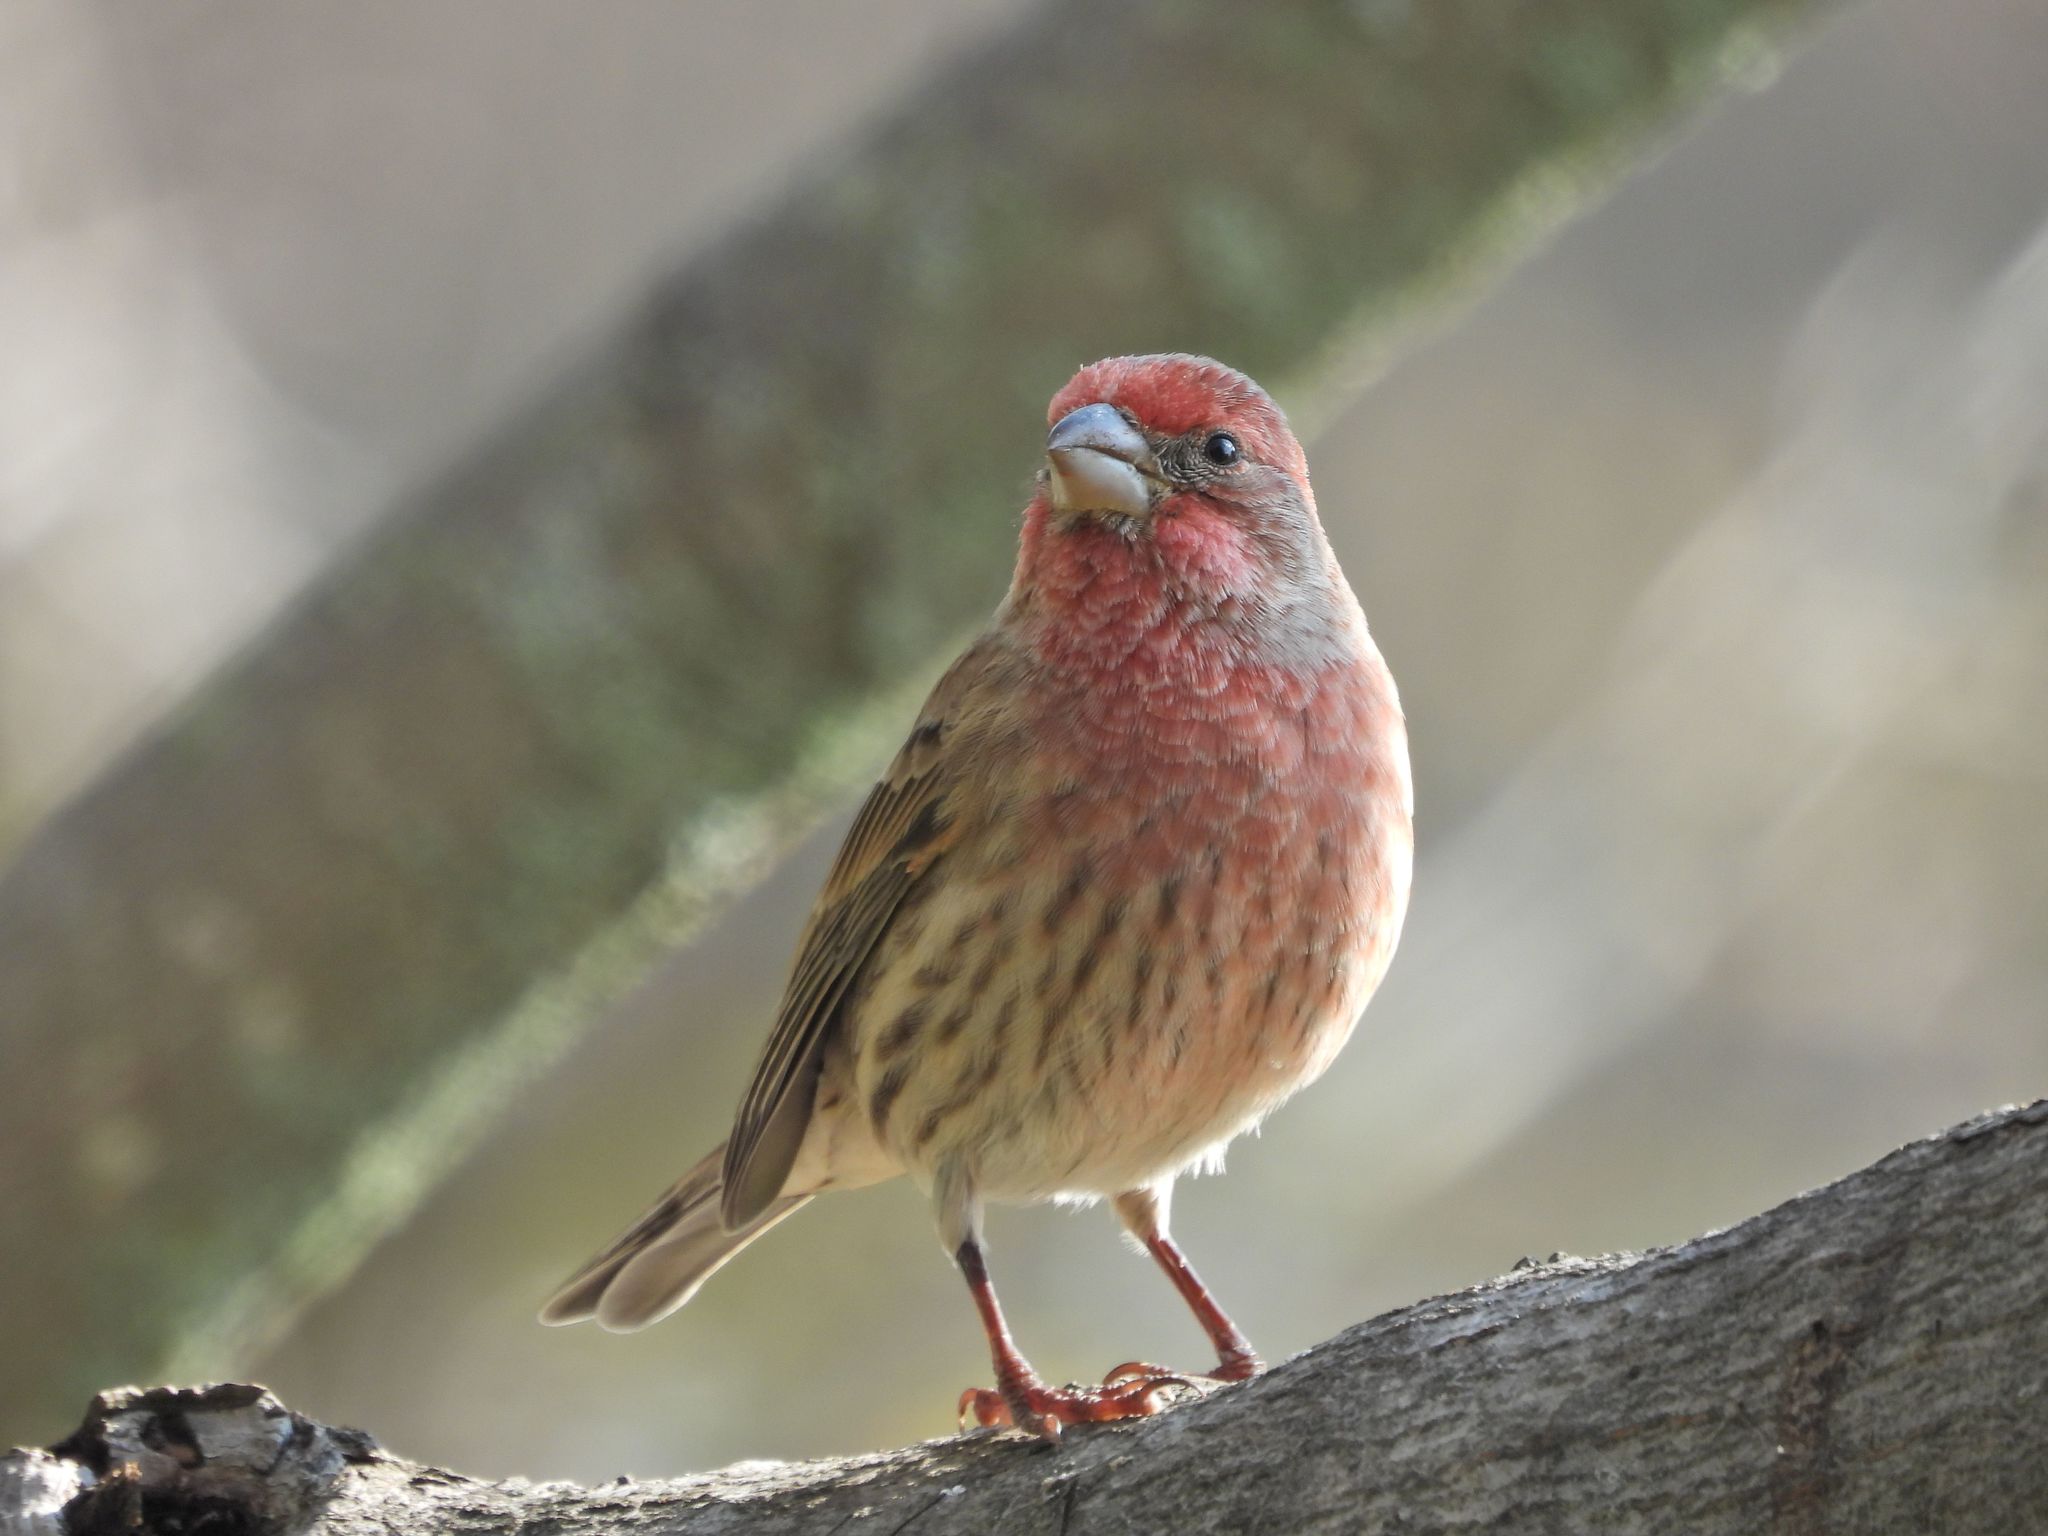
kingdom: Animalia
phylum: Chordata
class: Aves
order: Passeriformes
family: Fringillidae
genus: Haemorhous
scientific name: Haemorhous mexicanus
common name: House finch
